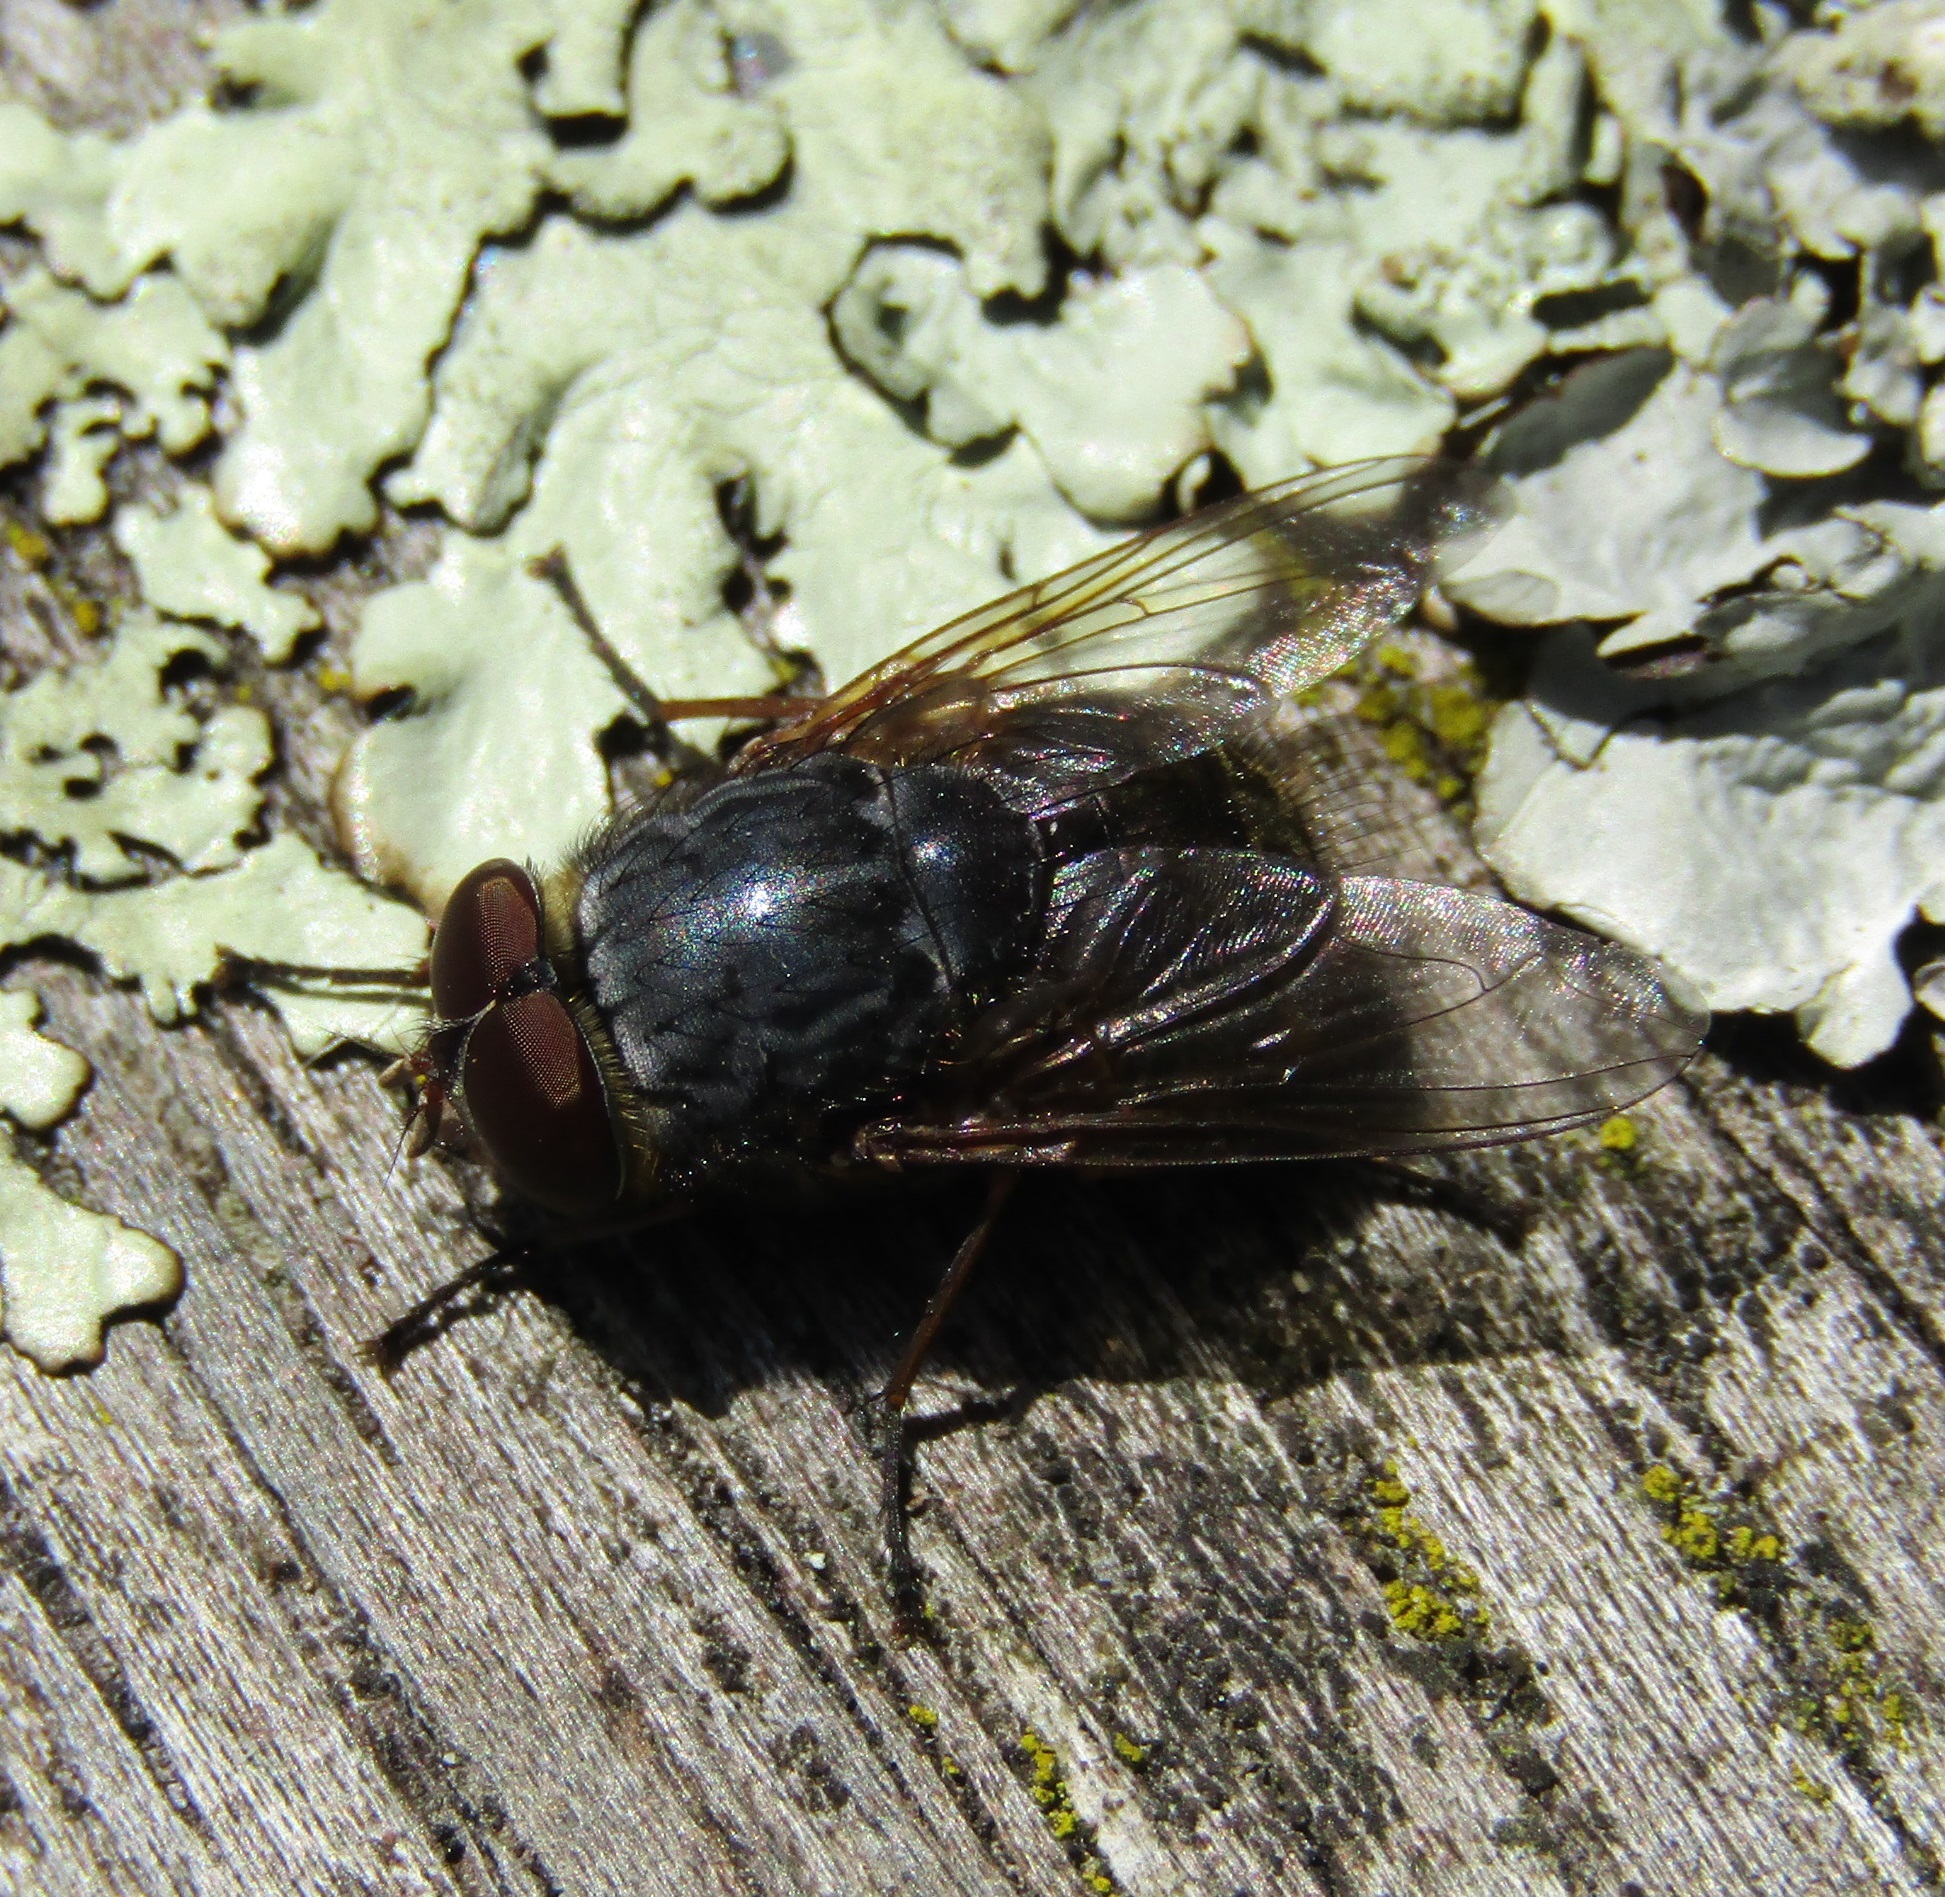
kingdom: Animalia
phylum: Arthropoda
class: Insecta
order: Diptera
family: Calliphoridae
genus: Calliphora
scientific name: Calliphora stygia
